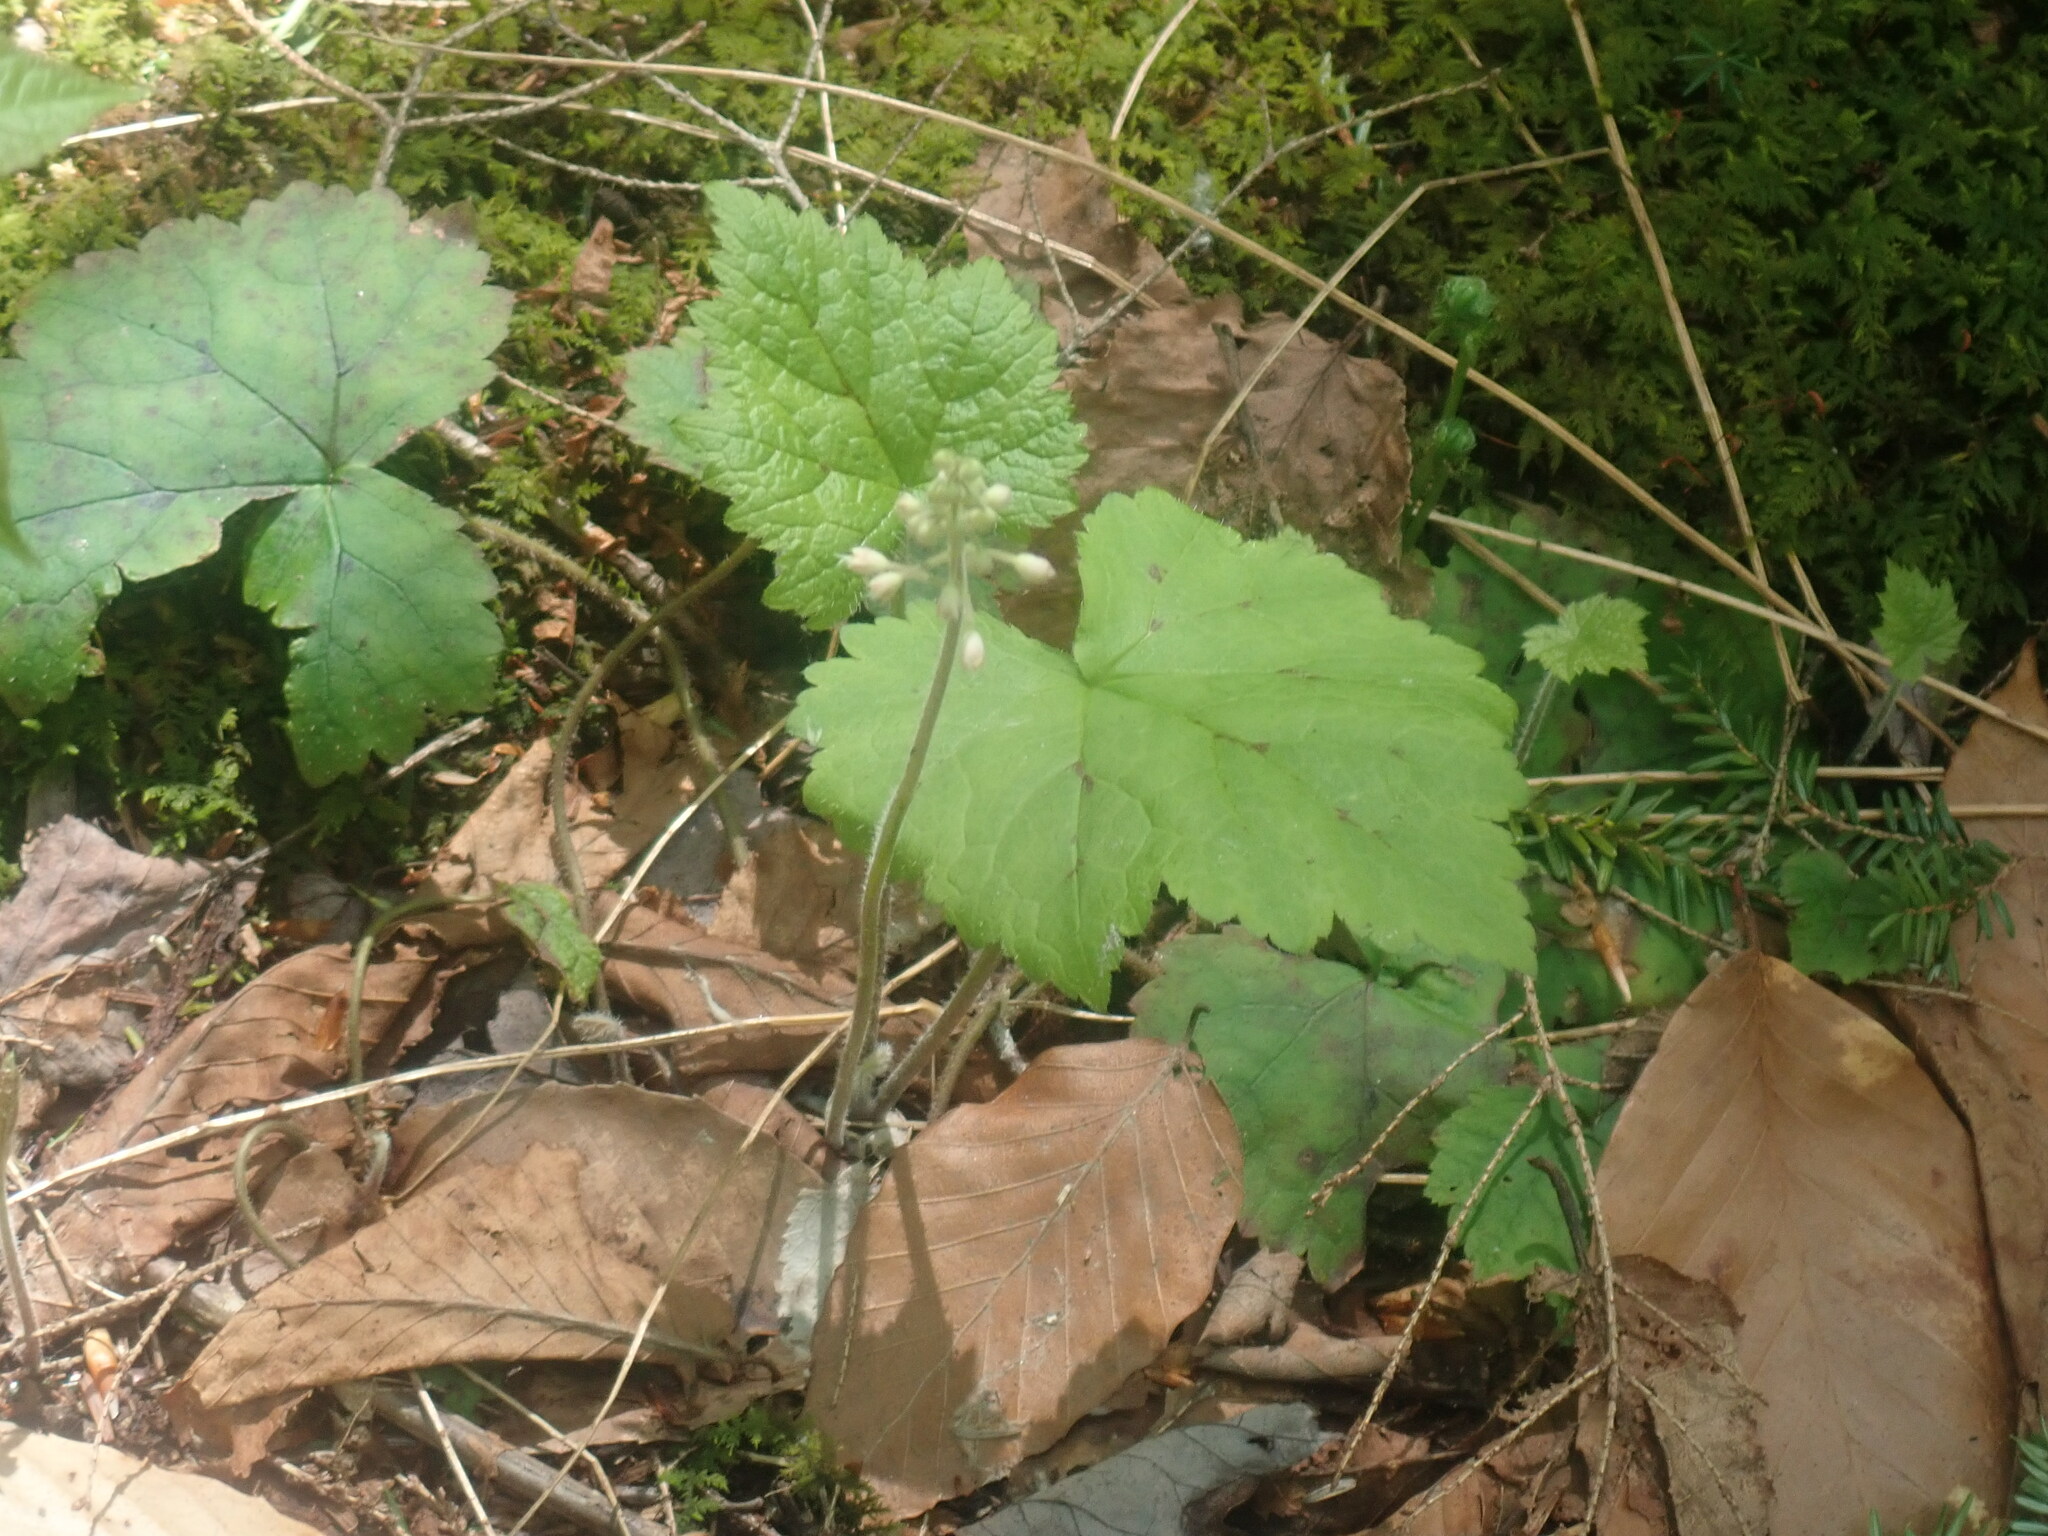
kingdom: Plantae
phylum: Tracheophyta
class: Magnoliopsida
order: Saxifragales
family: Saxifragaceae
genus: Tiarella
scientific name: Tiarella stolonifera
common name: Stoloniferous foamflower
